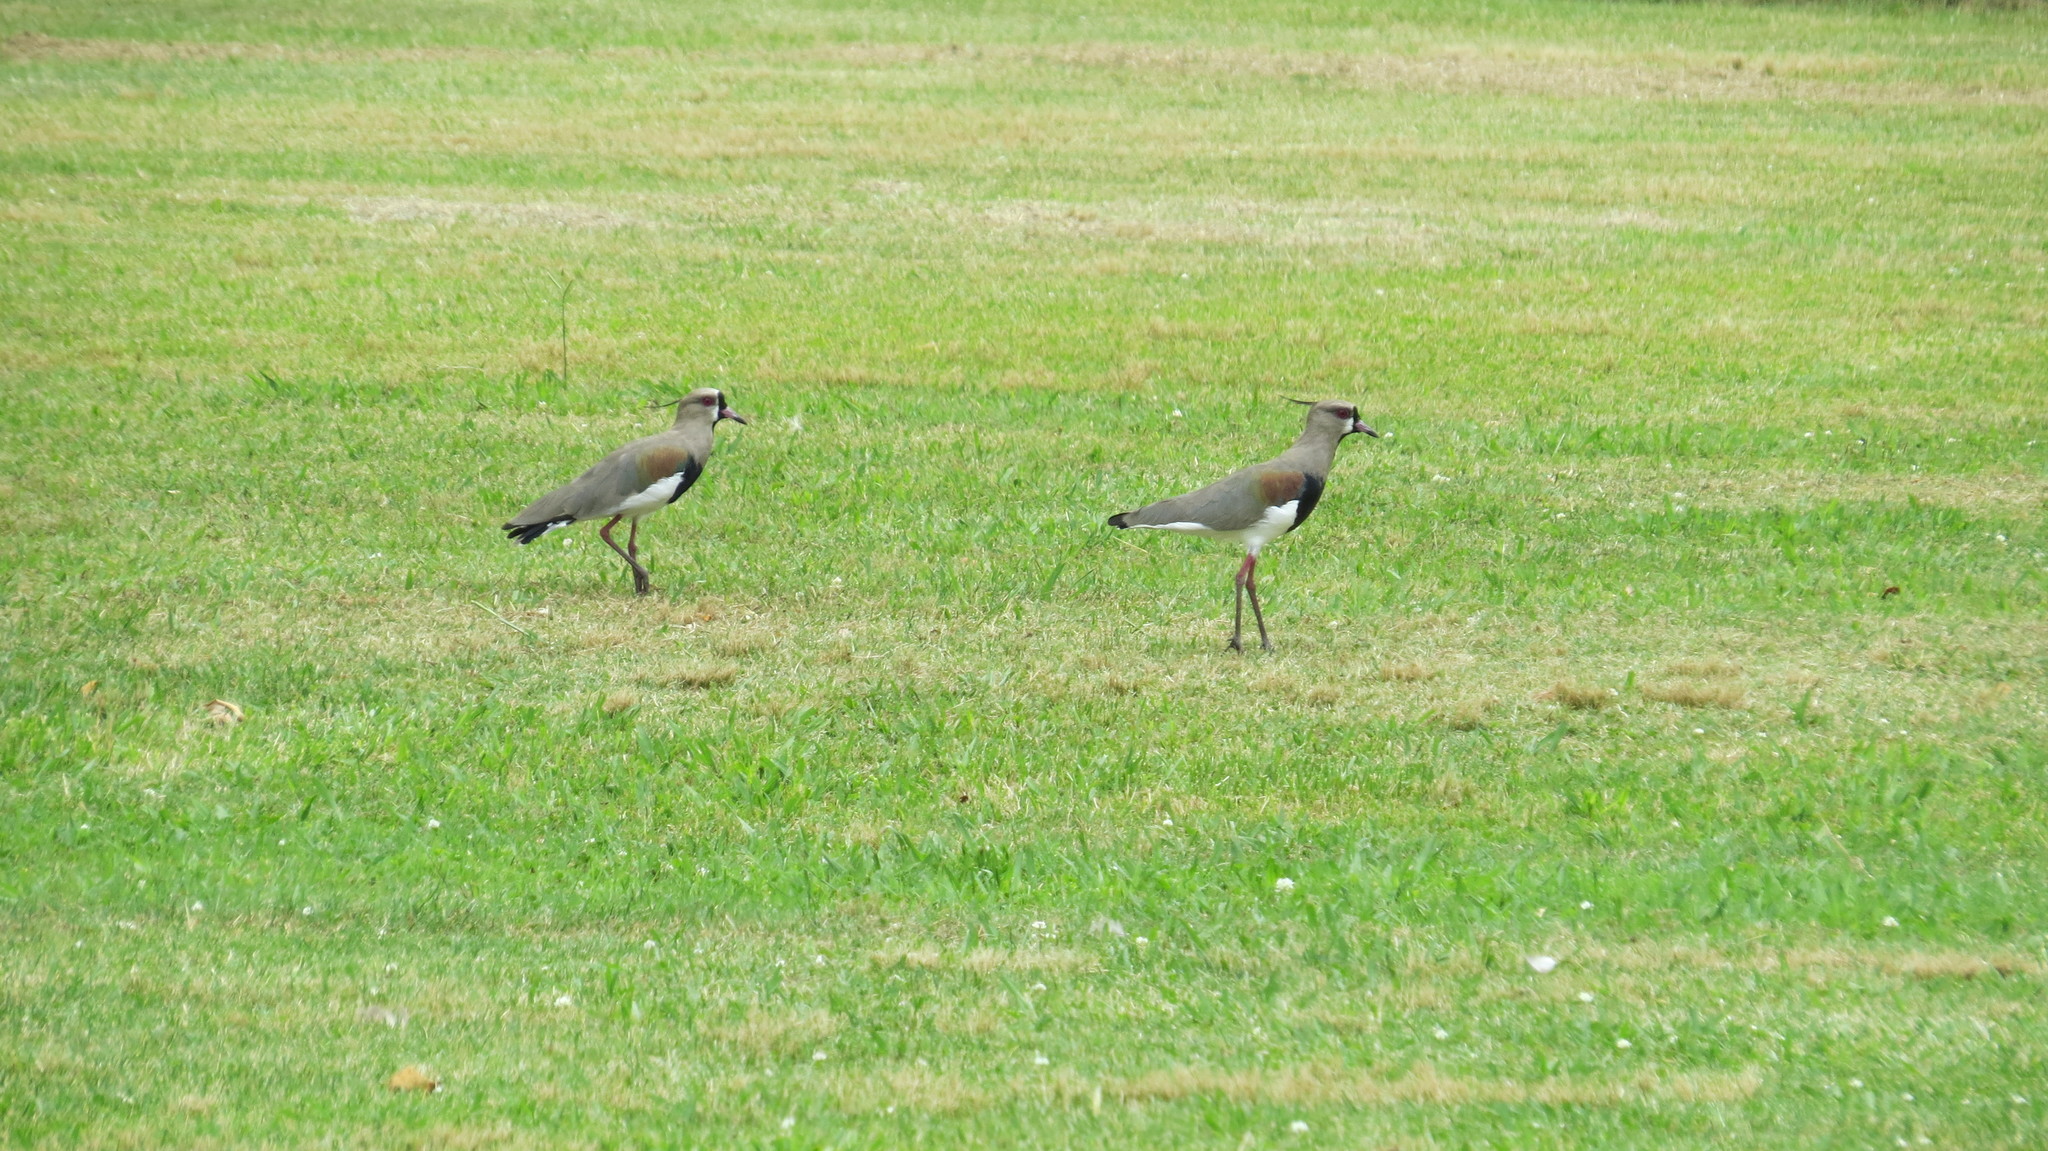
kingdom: Animalia
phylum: Chordata
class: Aves
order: Charadriiformes
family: Charadriidae
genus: Vanellus
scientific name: Vanellus chilensis
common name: Southern lapwing
